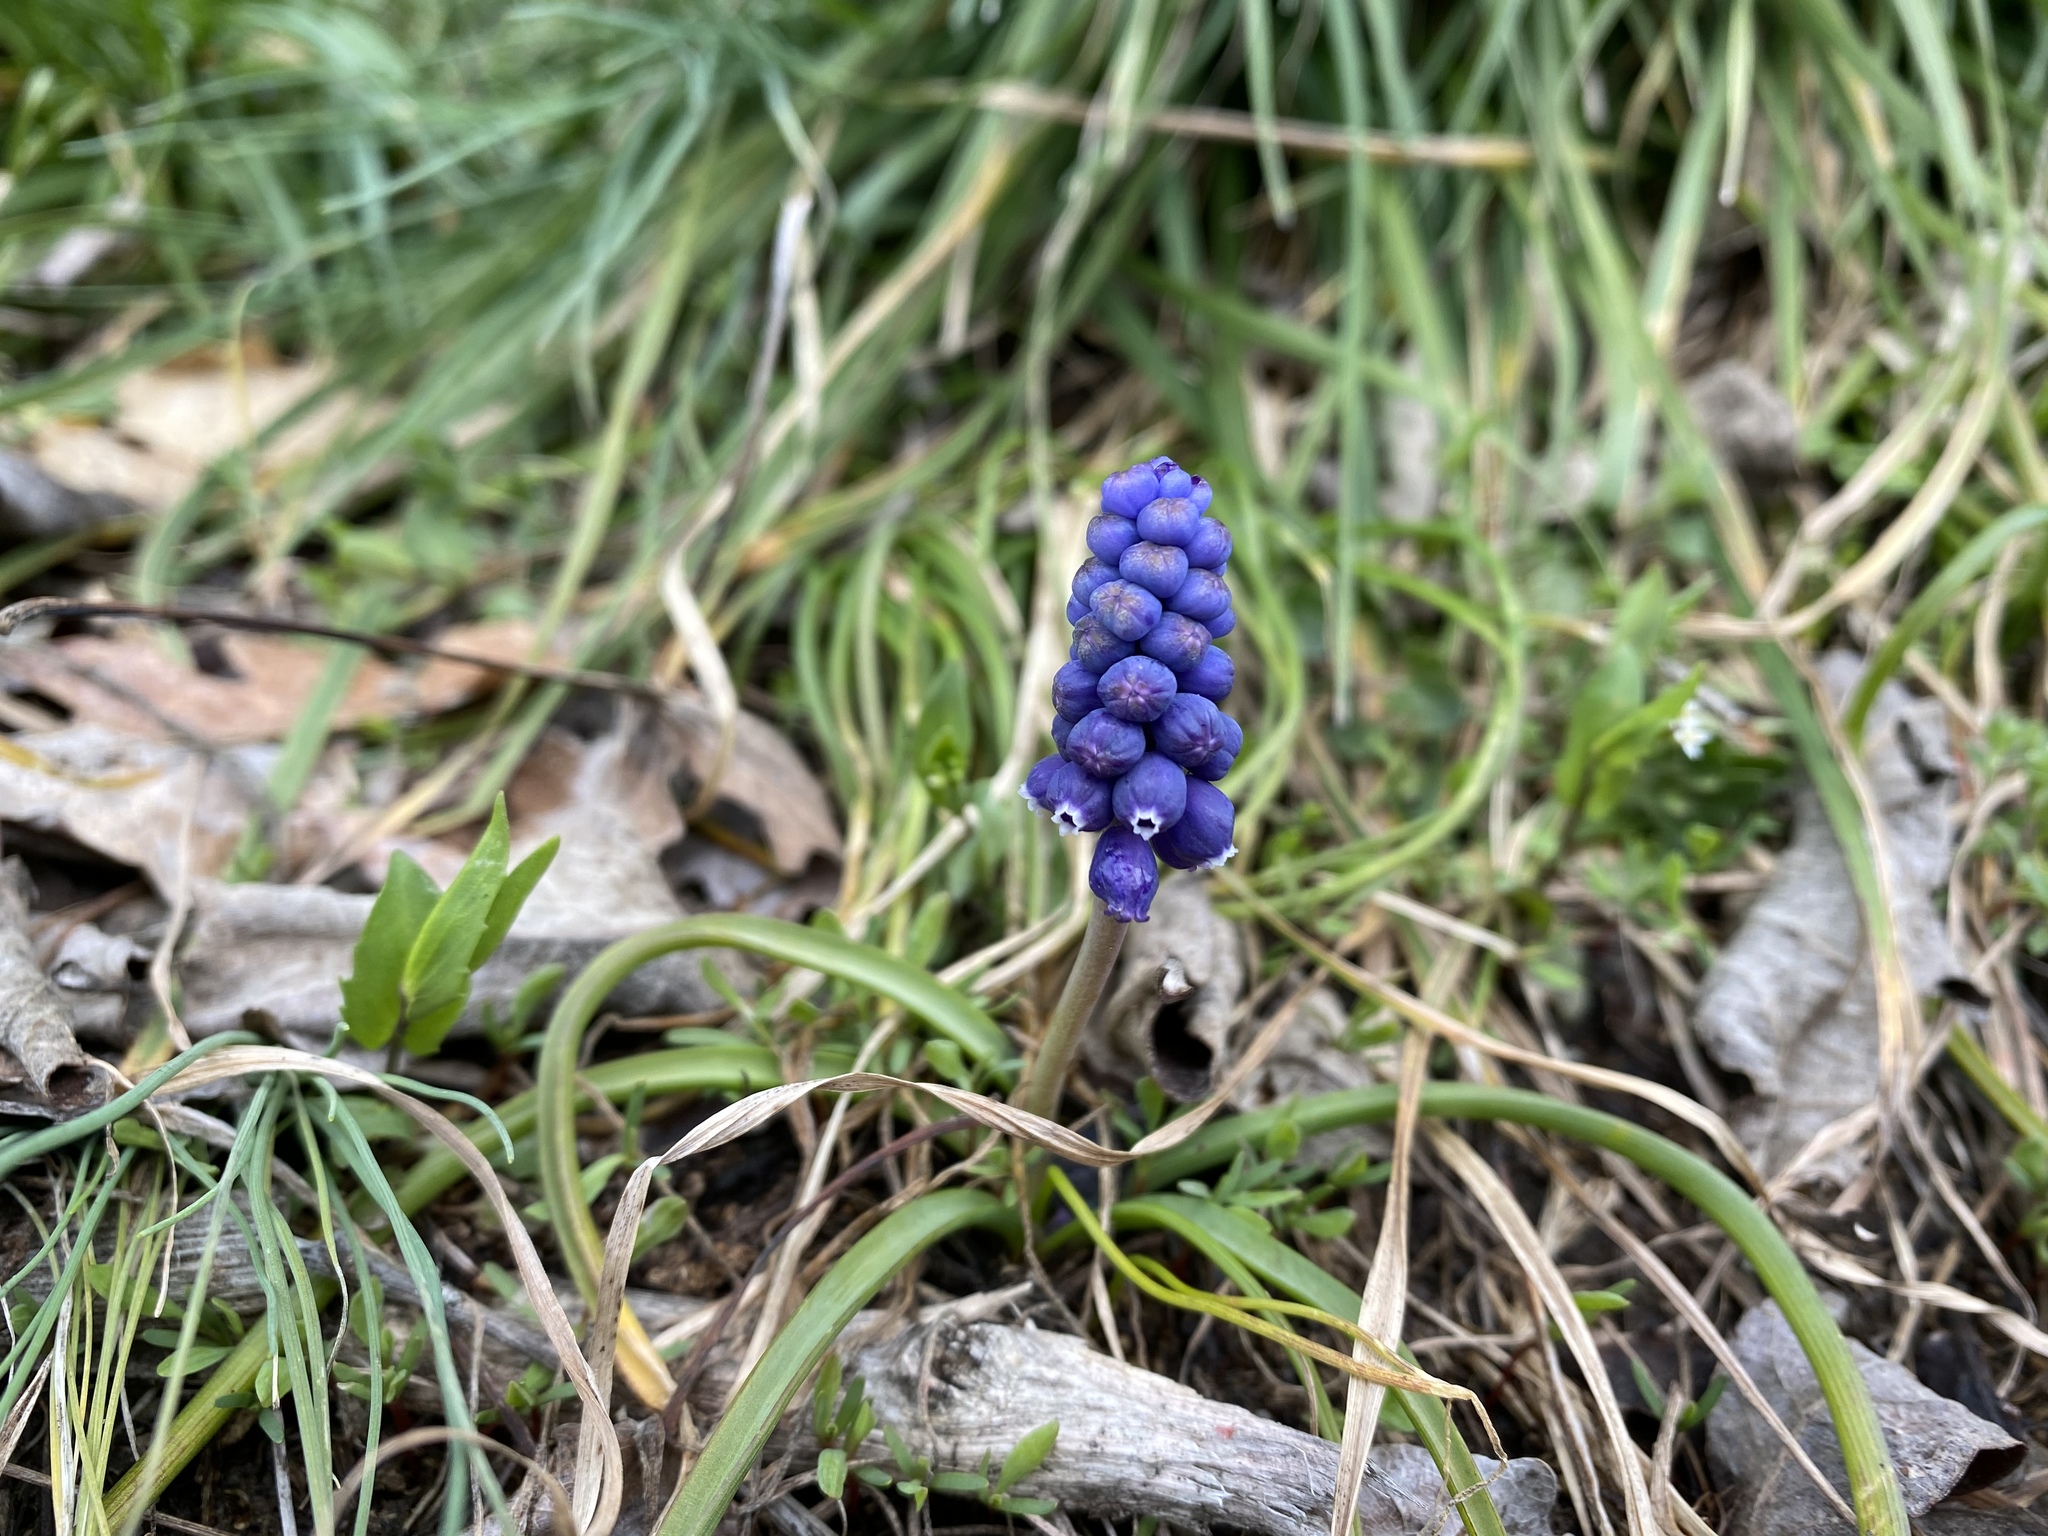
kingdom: Plantae
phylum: Tracheophyta
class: Liliopsida
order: Asparagales
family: Asparagaceae
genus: Muscari
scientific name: Muscari neglectum
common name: Grape-hyacinth
